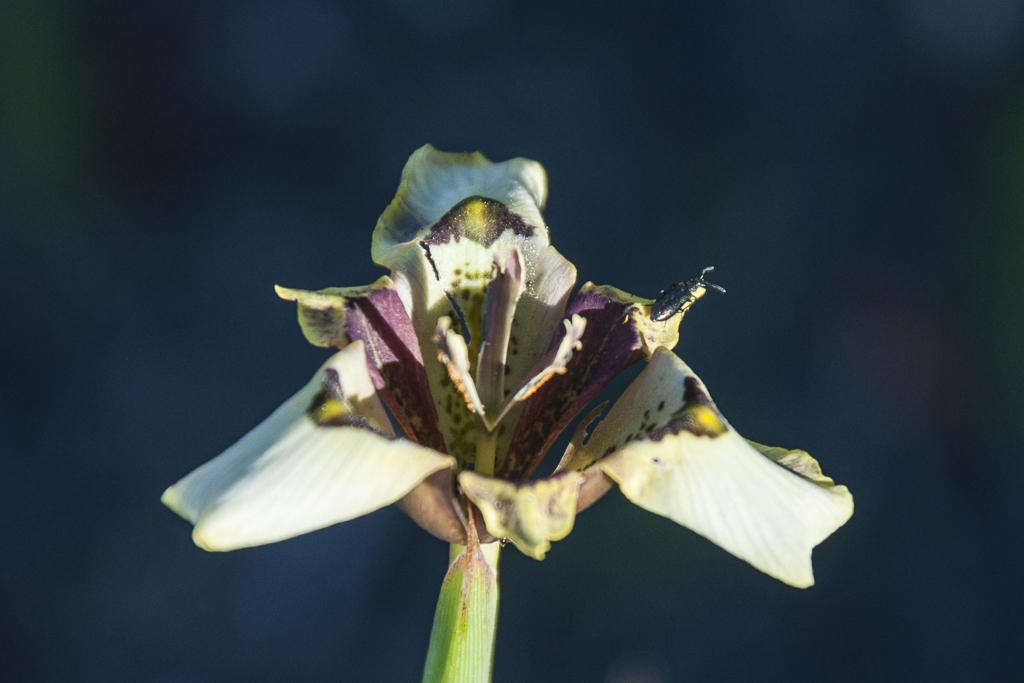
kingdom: Plantae
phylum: Tracheophyta
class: Liliopsida
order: Asparagales
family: Iridaceae
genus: Moraea
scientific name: Moraea lurida
